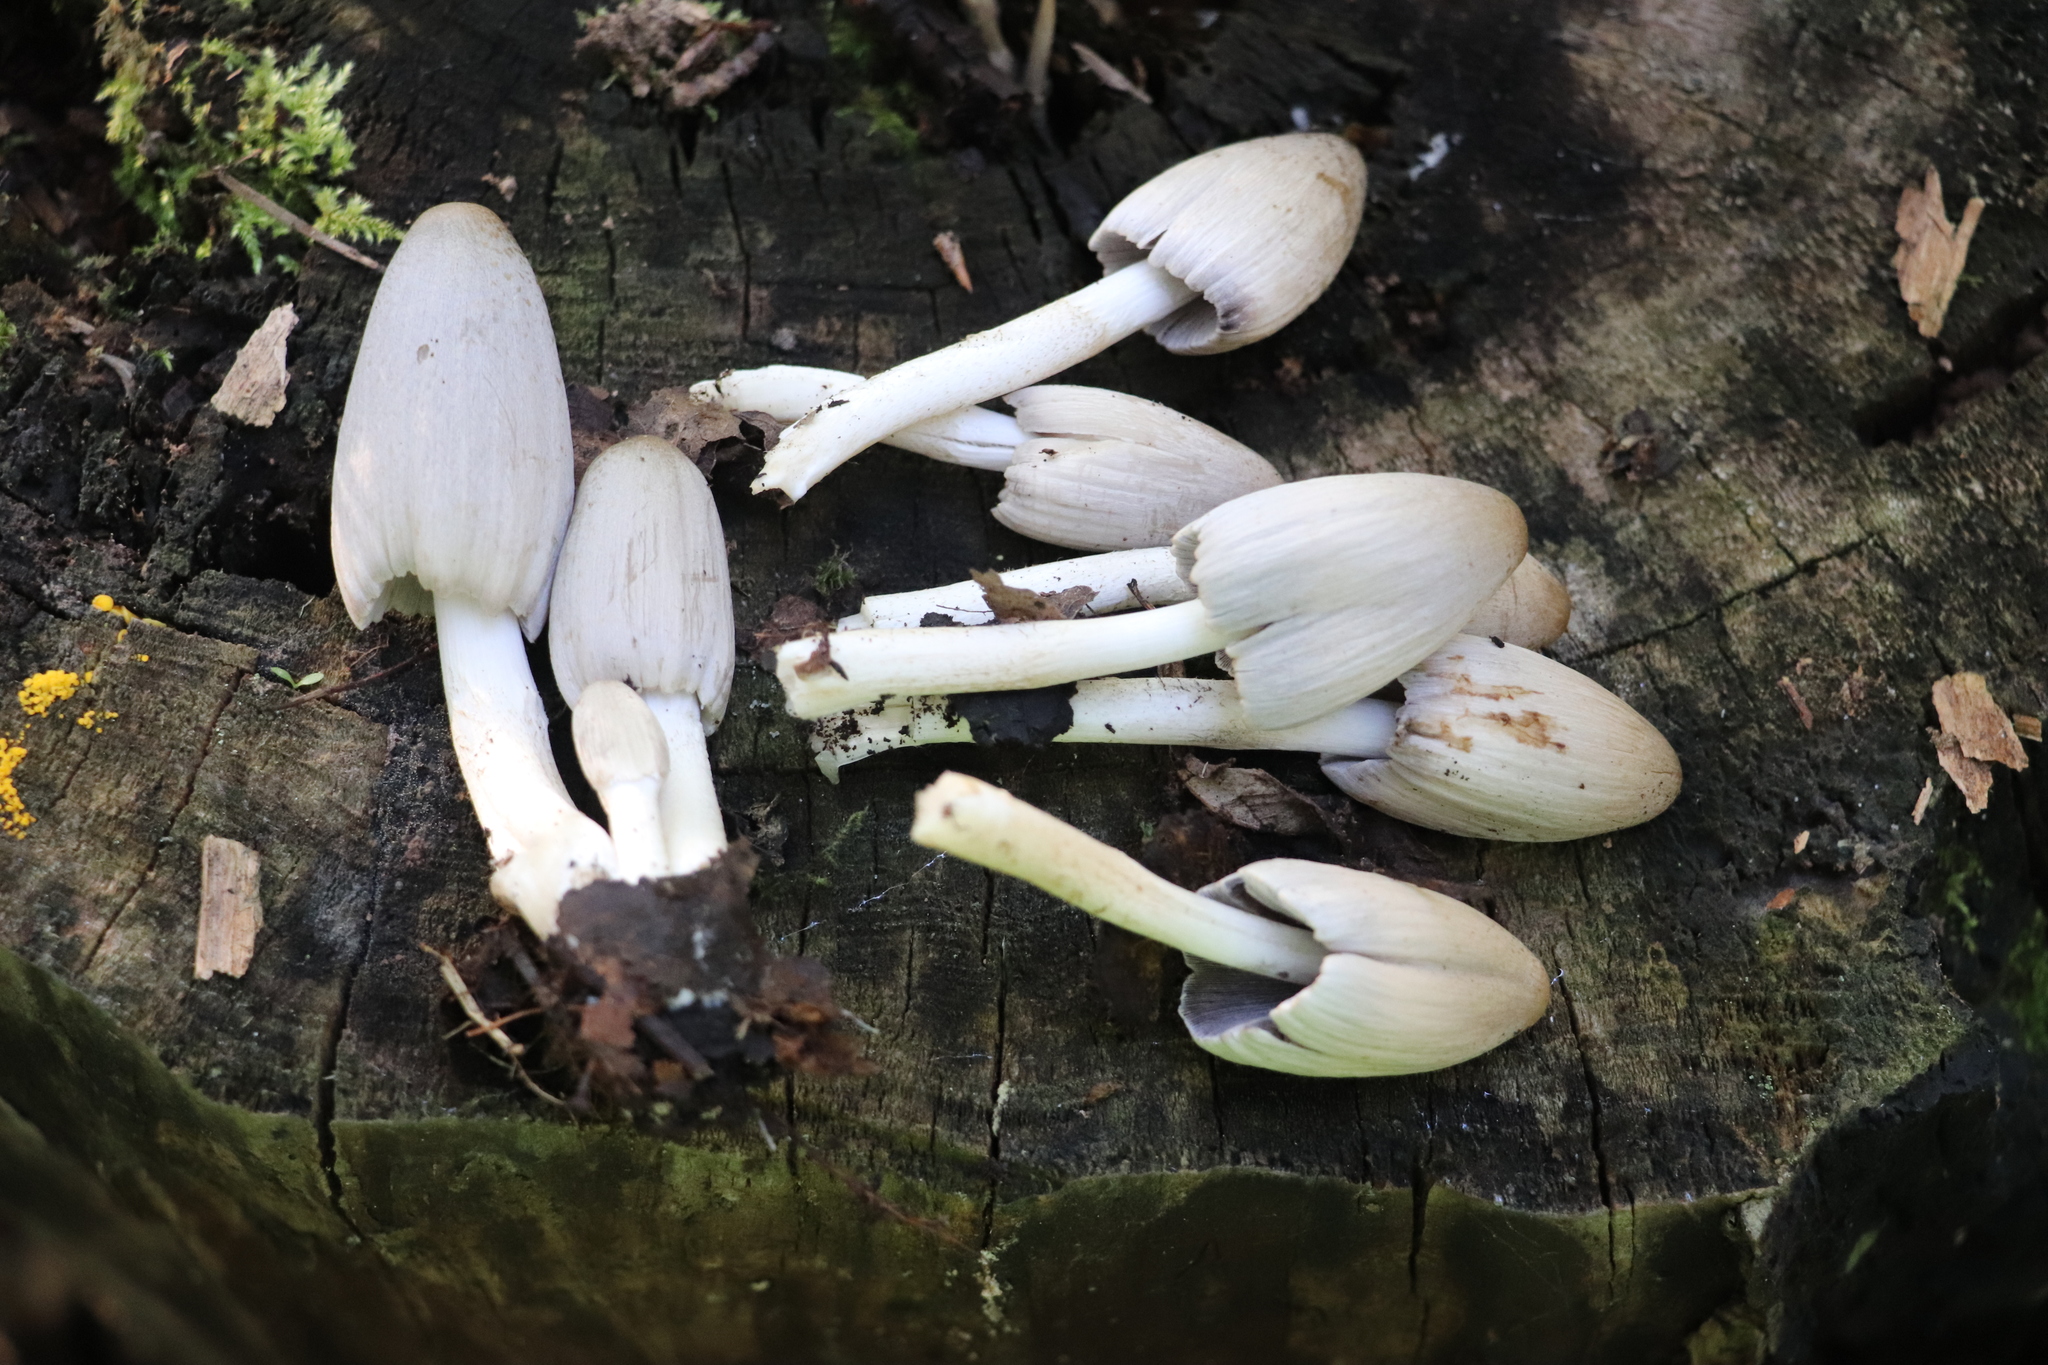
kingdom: Fungi
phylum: Basidiomycota
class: Agaricomycetes
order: Agaricales
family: Psathyrellaceae
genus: Coprinopsis
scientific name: Coprinopsis atramentaria
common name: Common ink-cap
